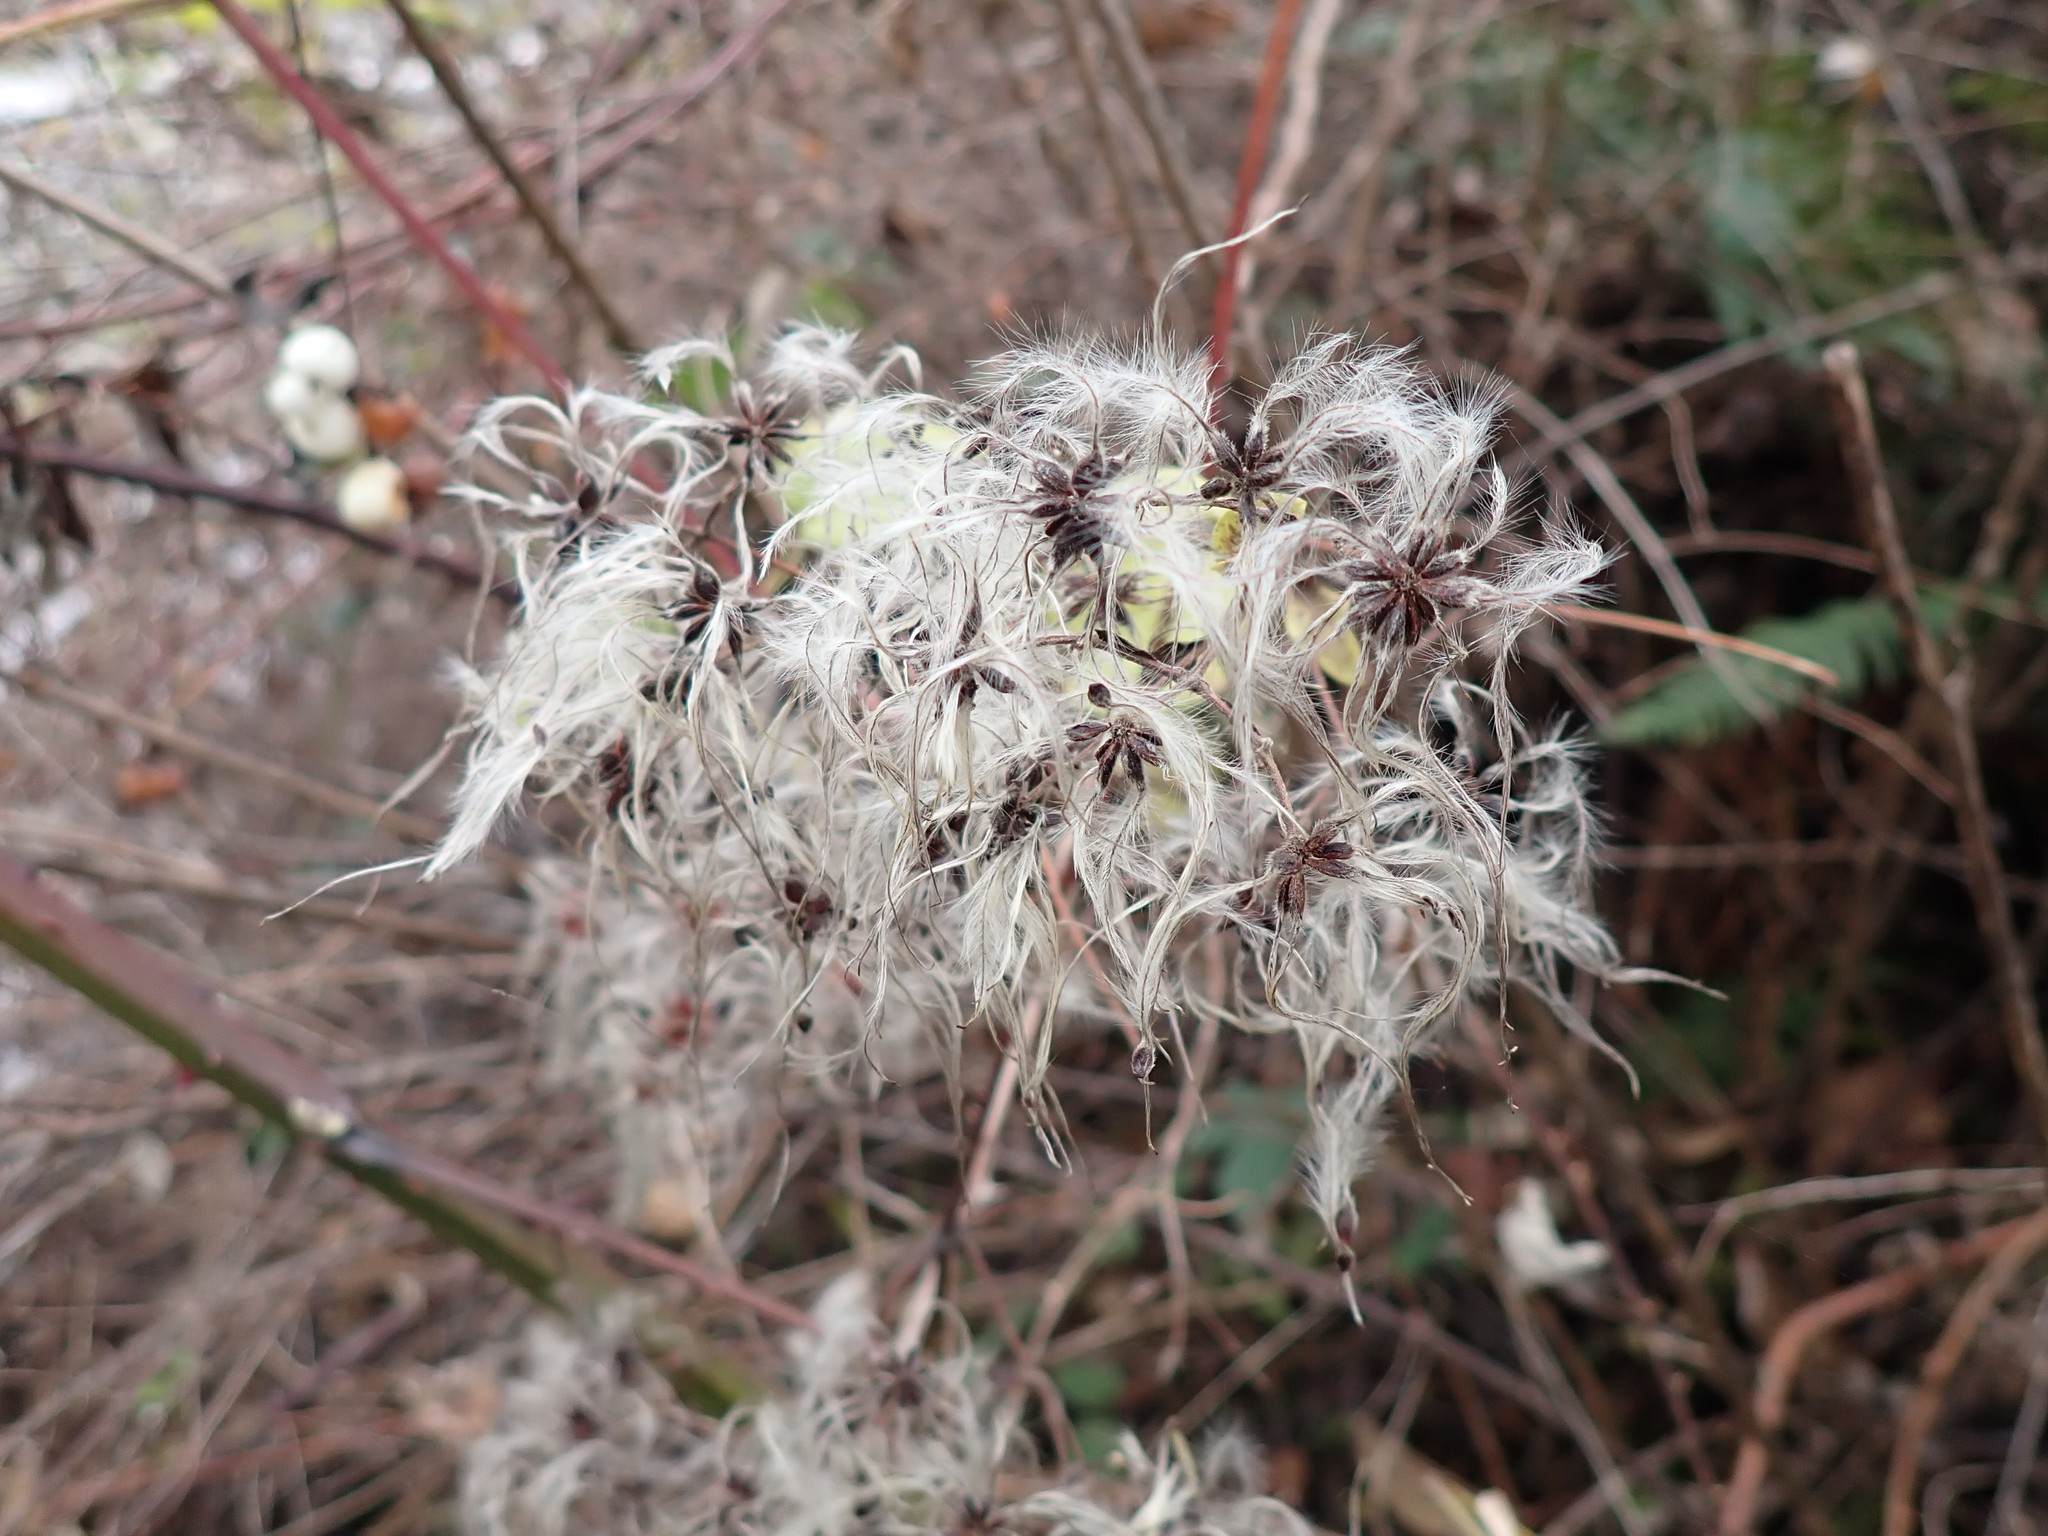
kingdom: Plantae
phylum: Tracheophyta
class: Magnoliopsida
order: Ranunculales
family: Ranunculaceae
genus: Clematis
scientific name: Clematis vitalba
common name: Evergreen clematis
